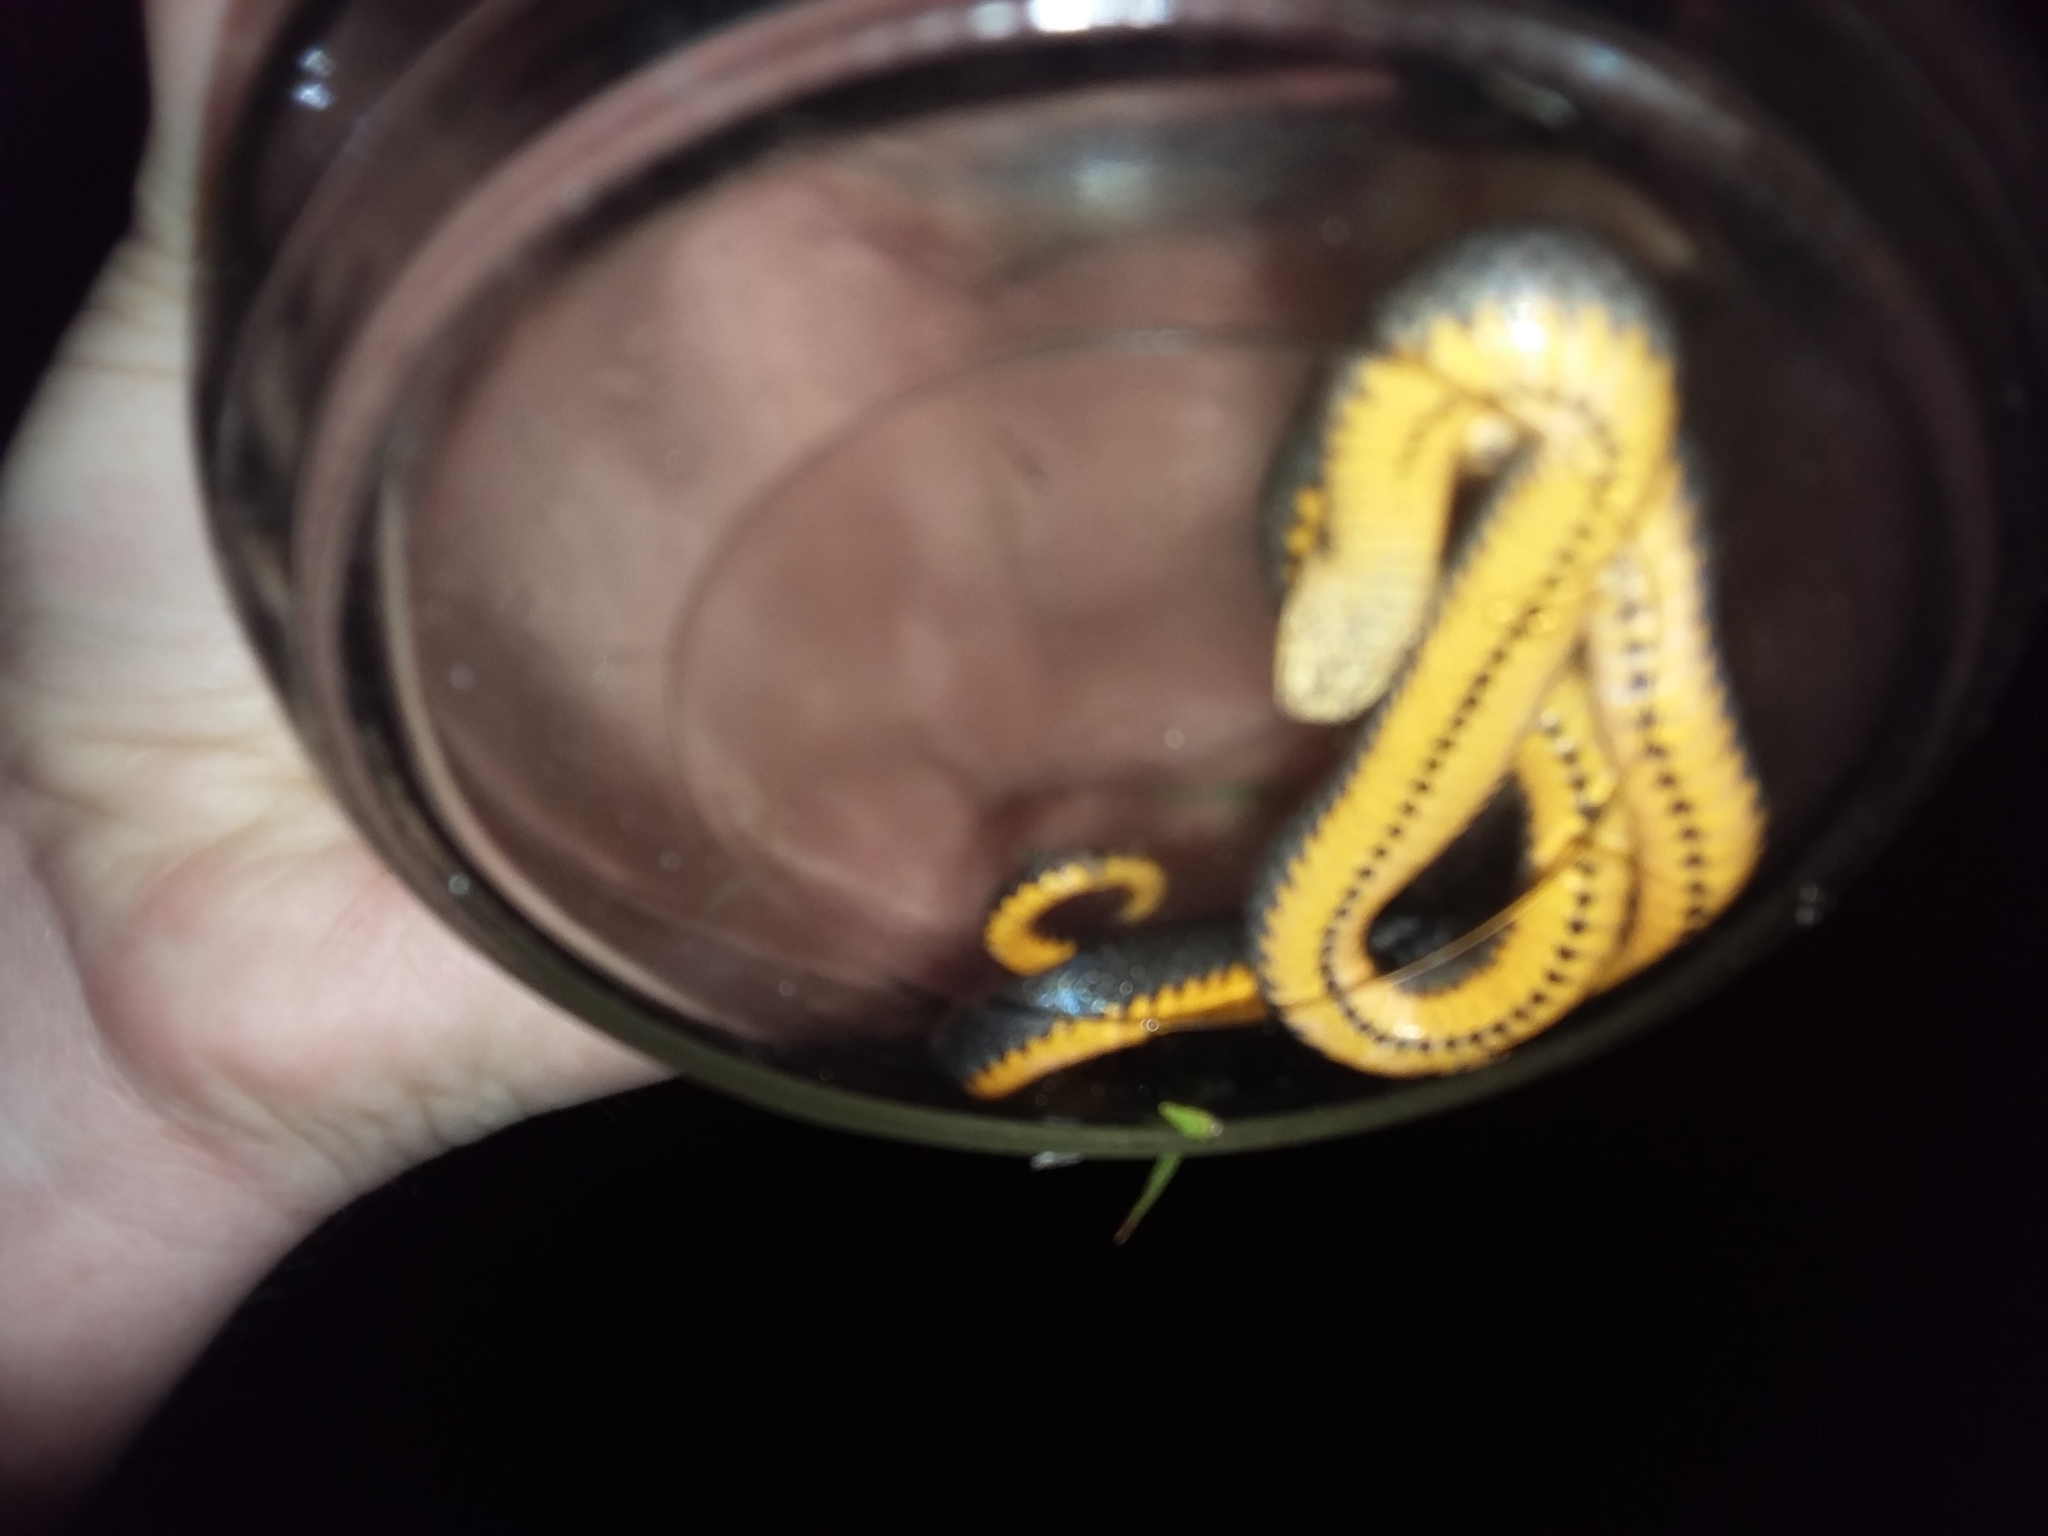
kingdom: Animalia
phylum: Chordata
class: Squamata
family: Colubridae
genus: Diadophis
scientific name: Diadophis punctatus
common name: Ringneck snake
